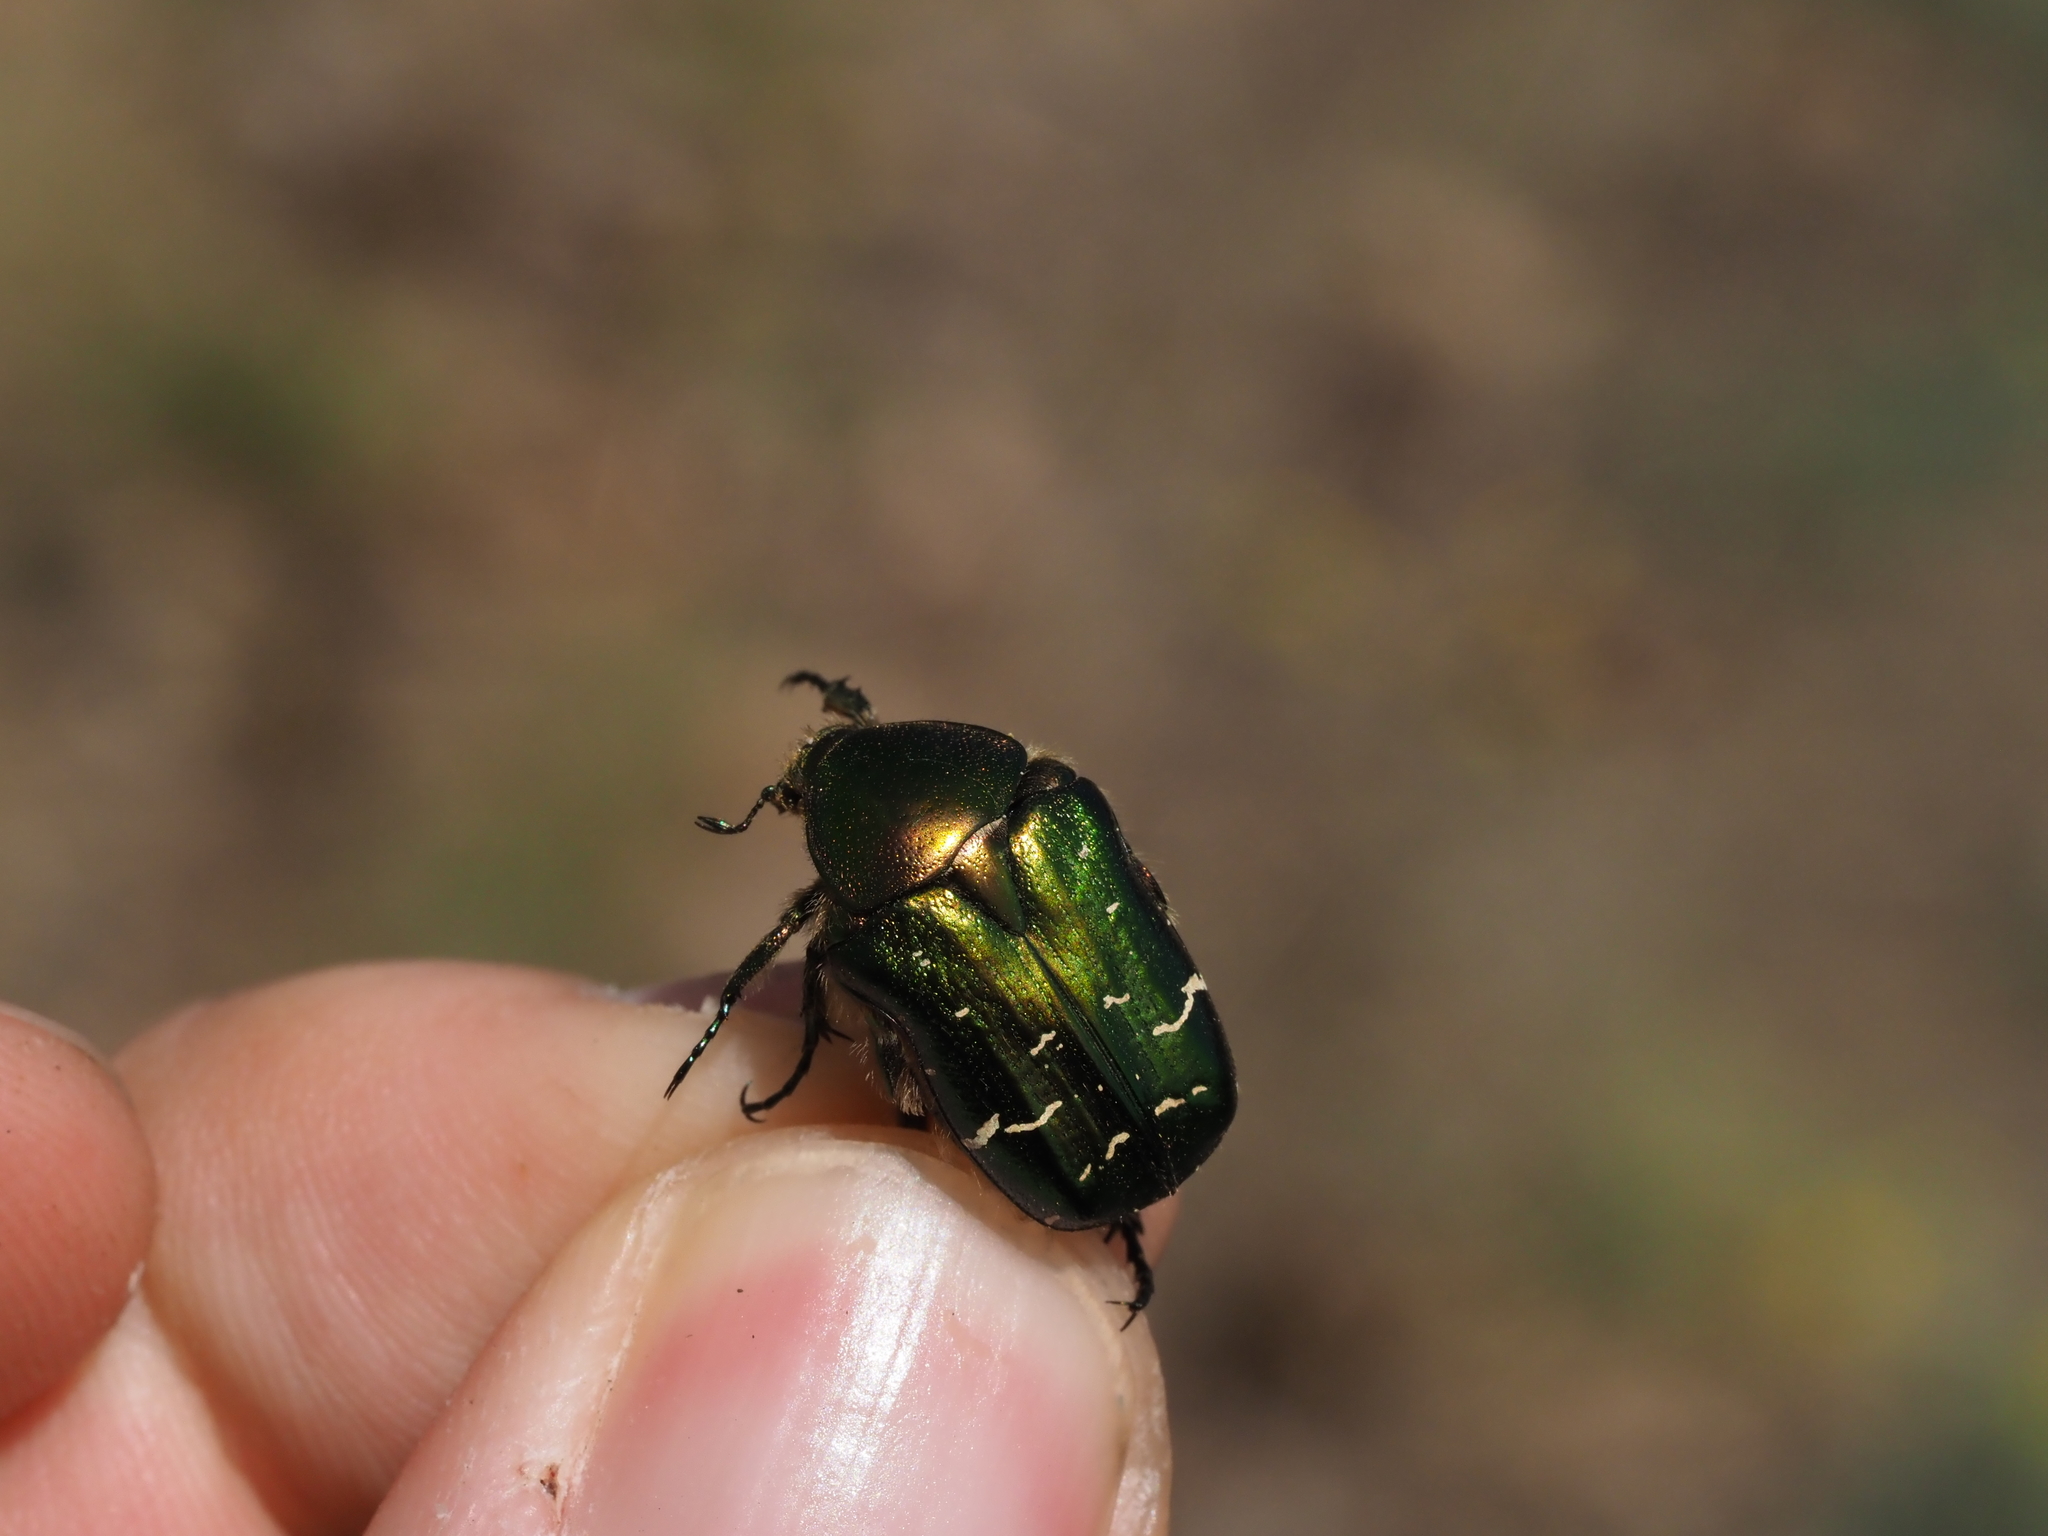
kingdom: Animalia
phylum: Arthropoda
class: Insecta
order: Coleoptera
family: Scarabaeidae
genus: Cetonia
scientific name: Cetonia aurata
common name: Rose chafer
